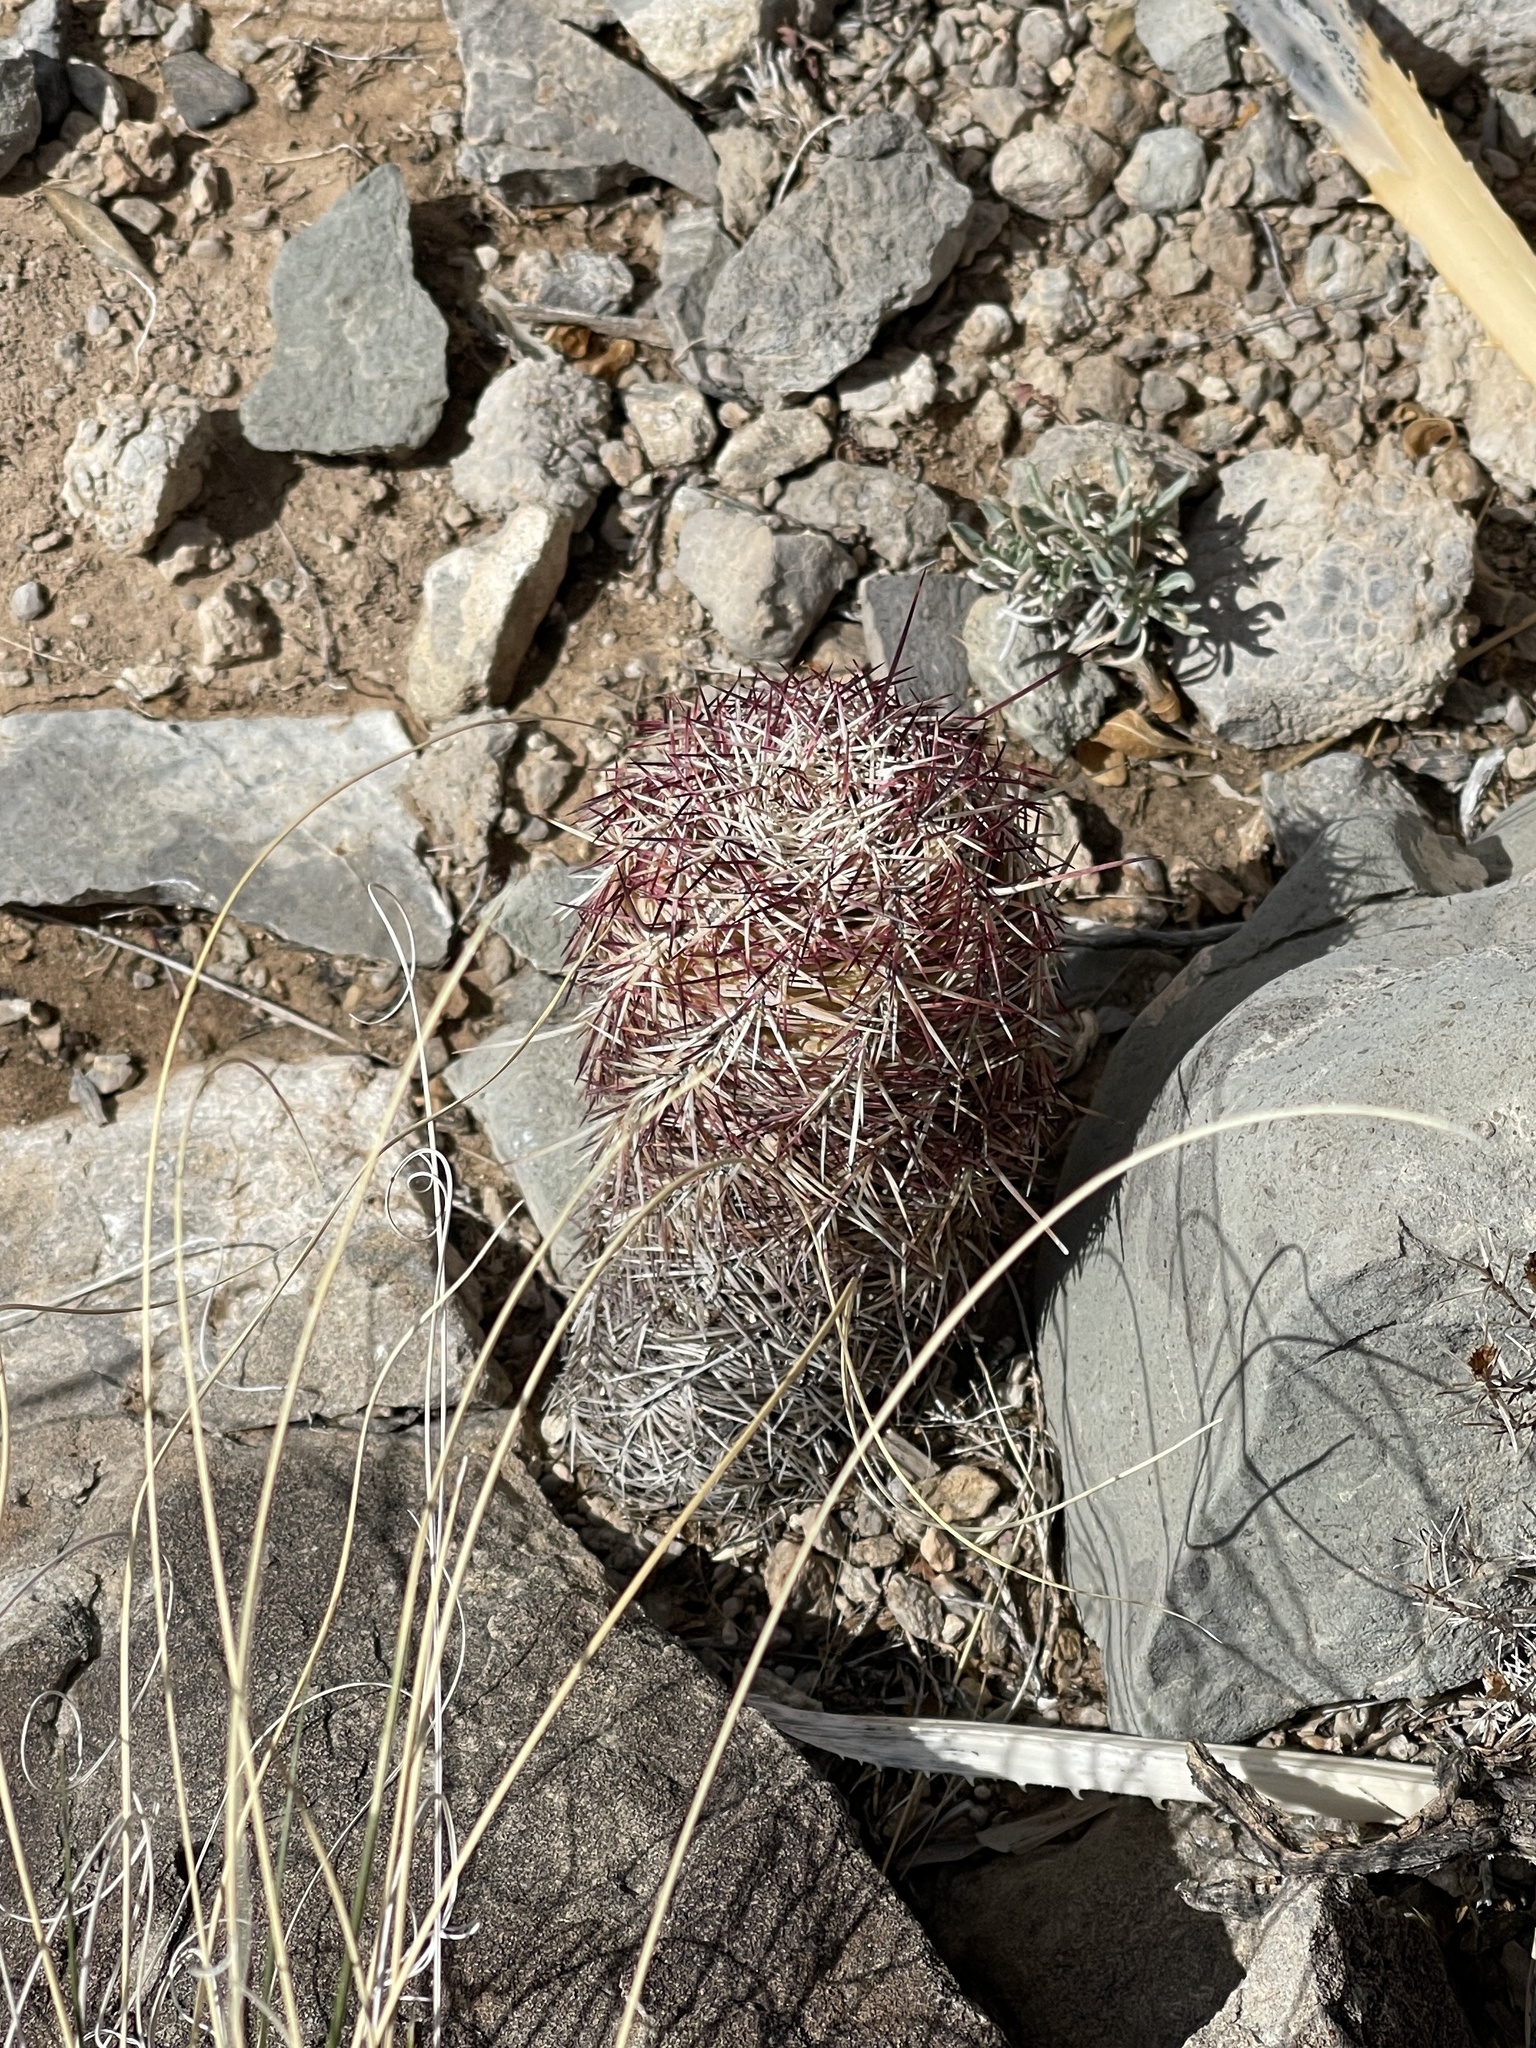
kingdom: Plantae
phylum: Tracheophyta
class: Magnoliopsida
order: Caryophyllales
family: Cactaceae
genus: Echinocereus
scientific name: Echinocereus viridiflorus
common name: Nylon hedgehog cactus
